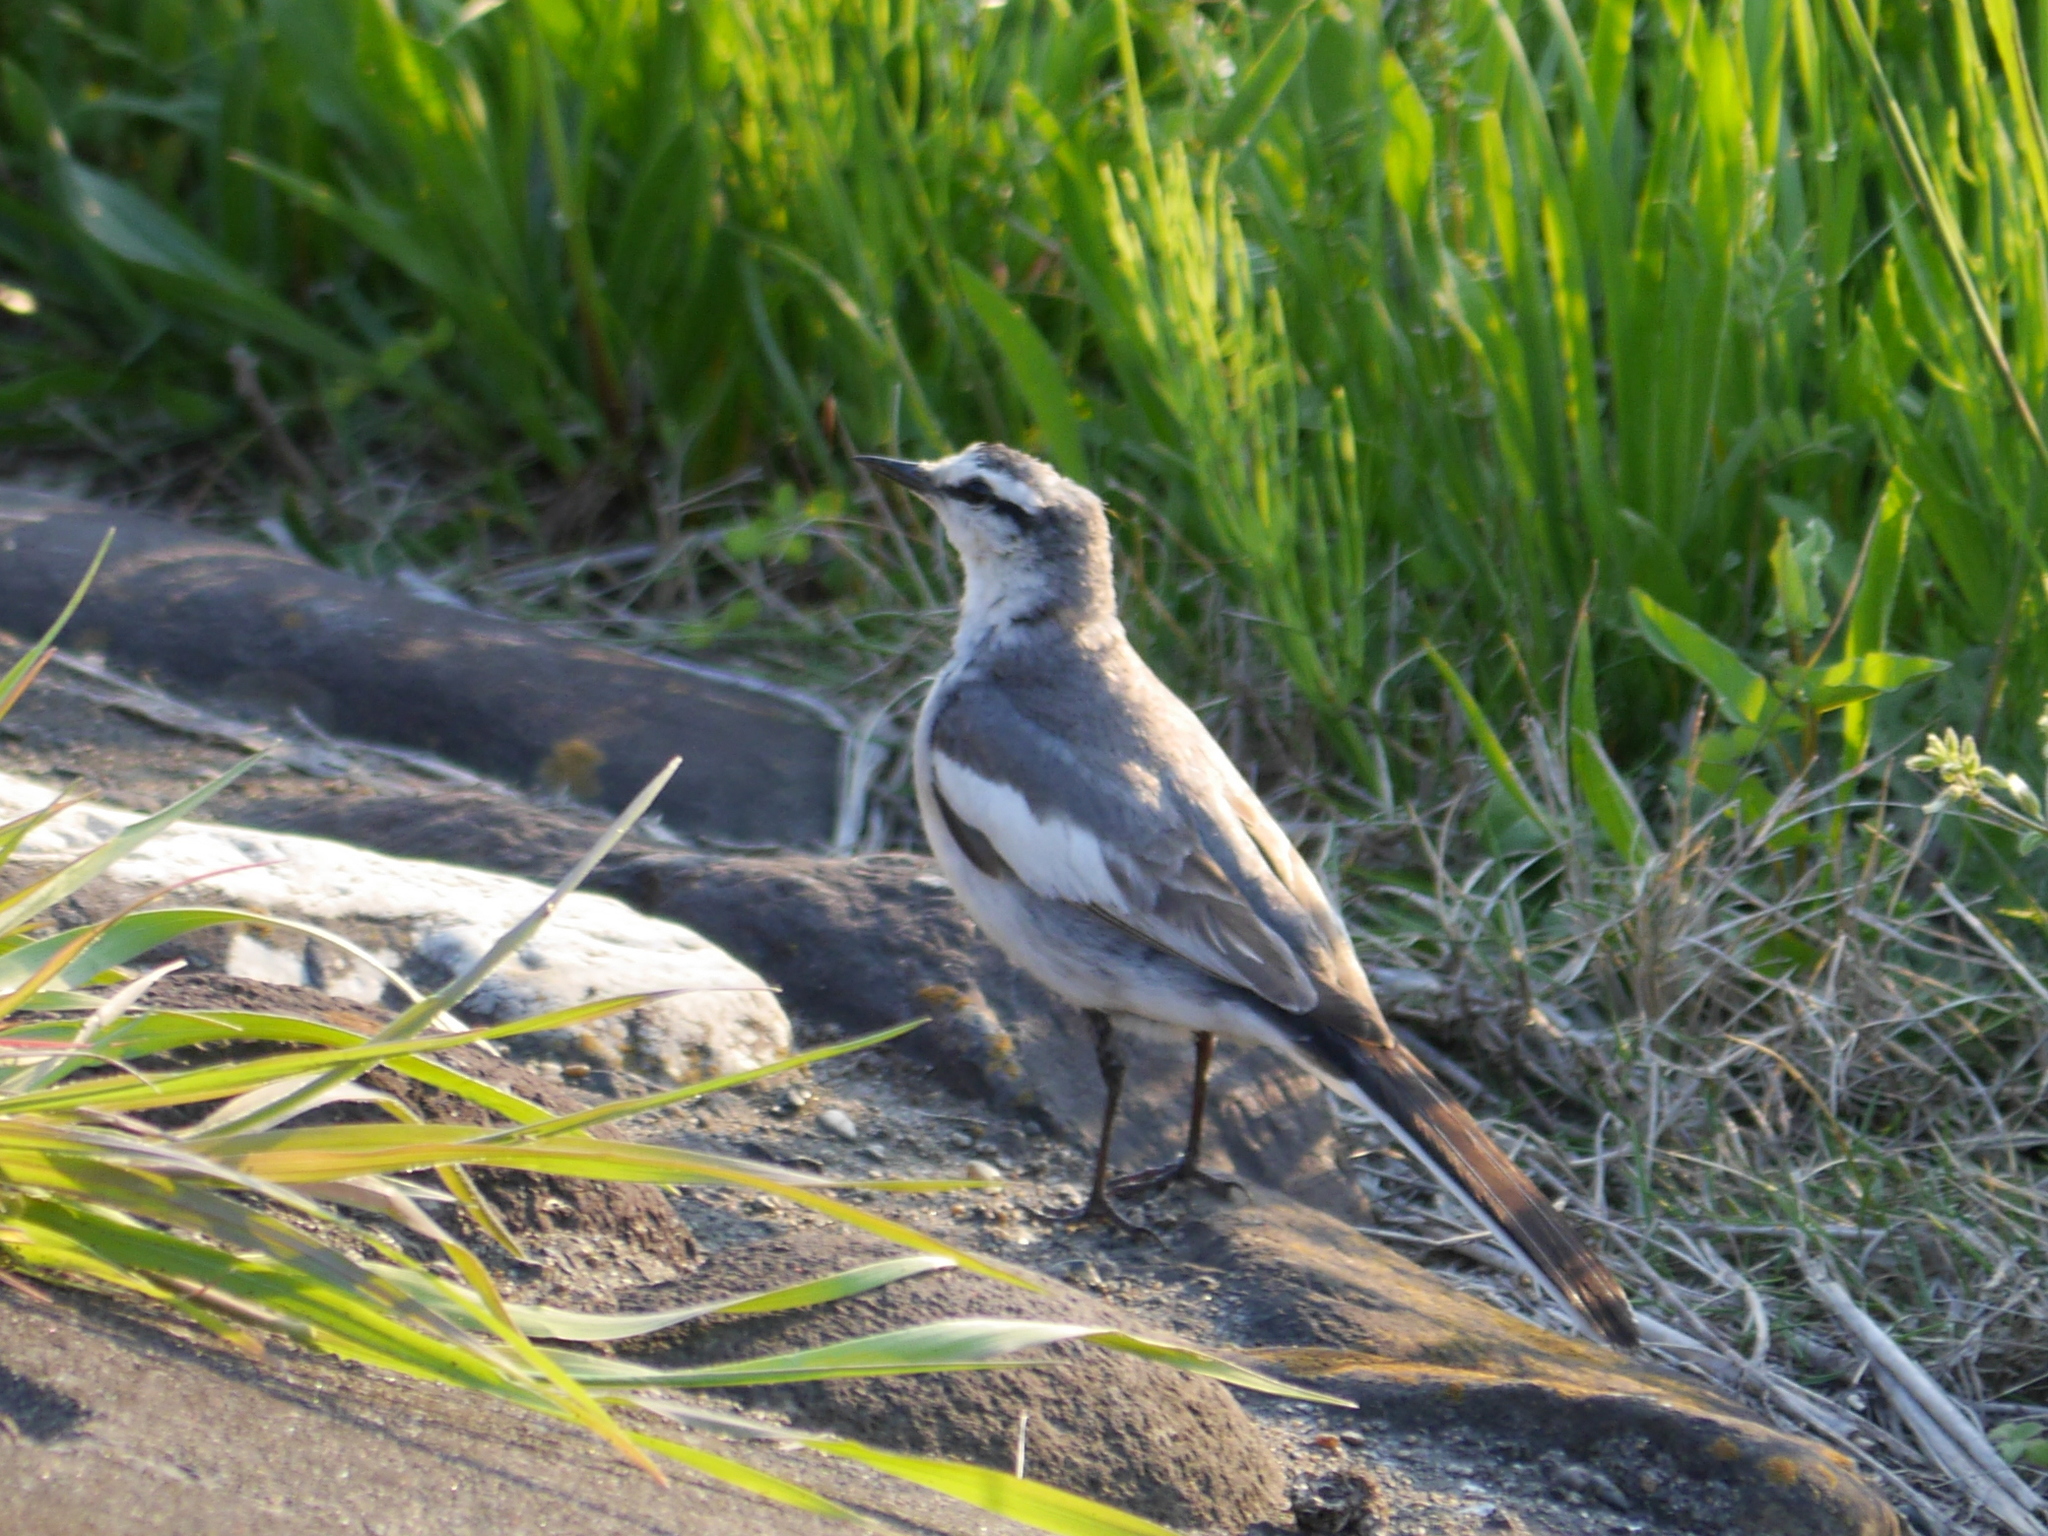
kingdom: Animalia
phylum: Chordata
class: Aves
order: Passeriformes
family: Motacillidae
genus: Motacilla
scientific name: Motacilla alba
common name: White wagtail
